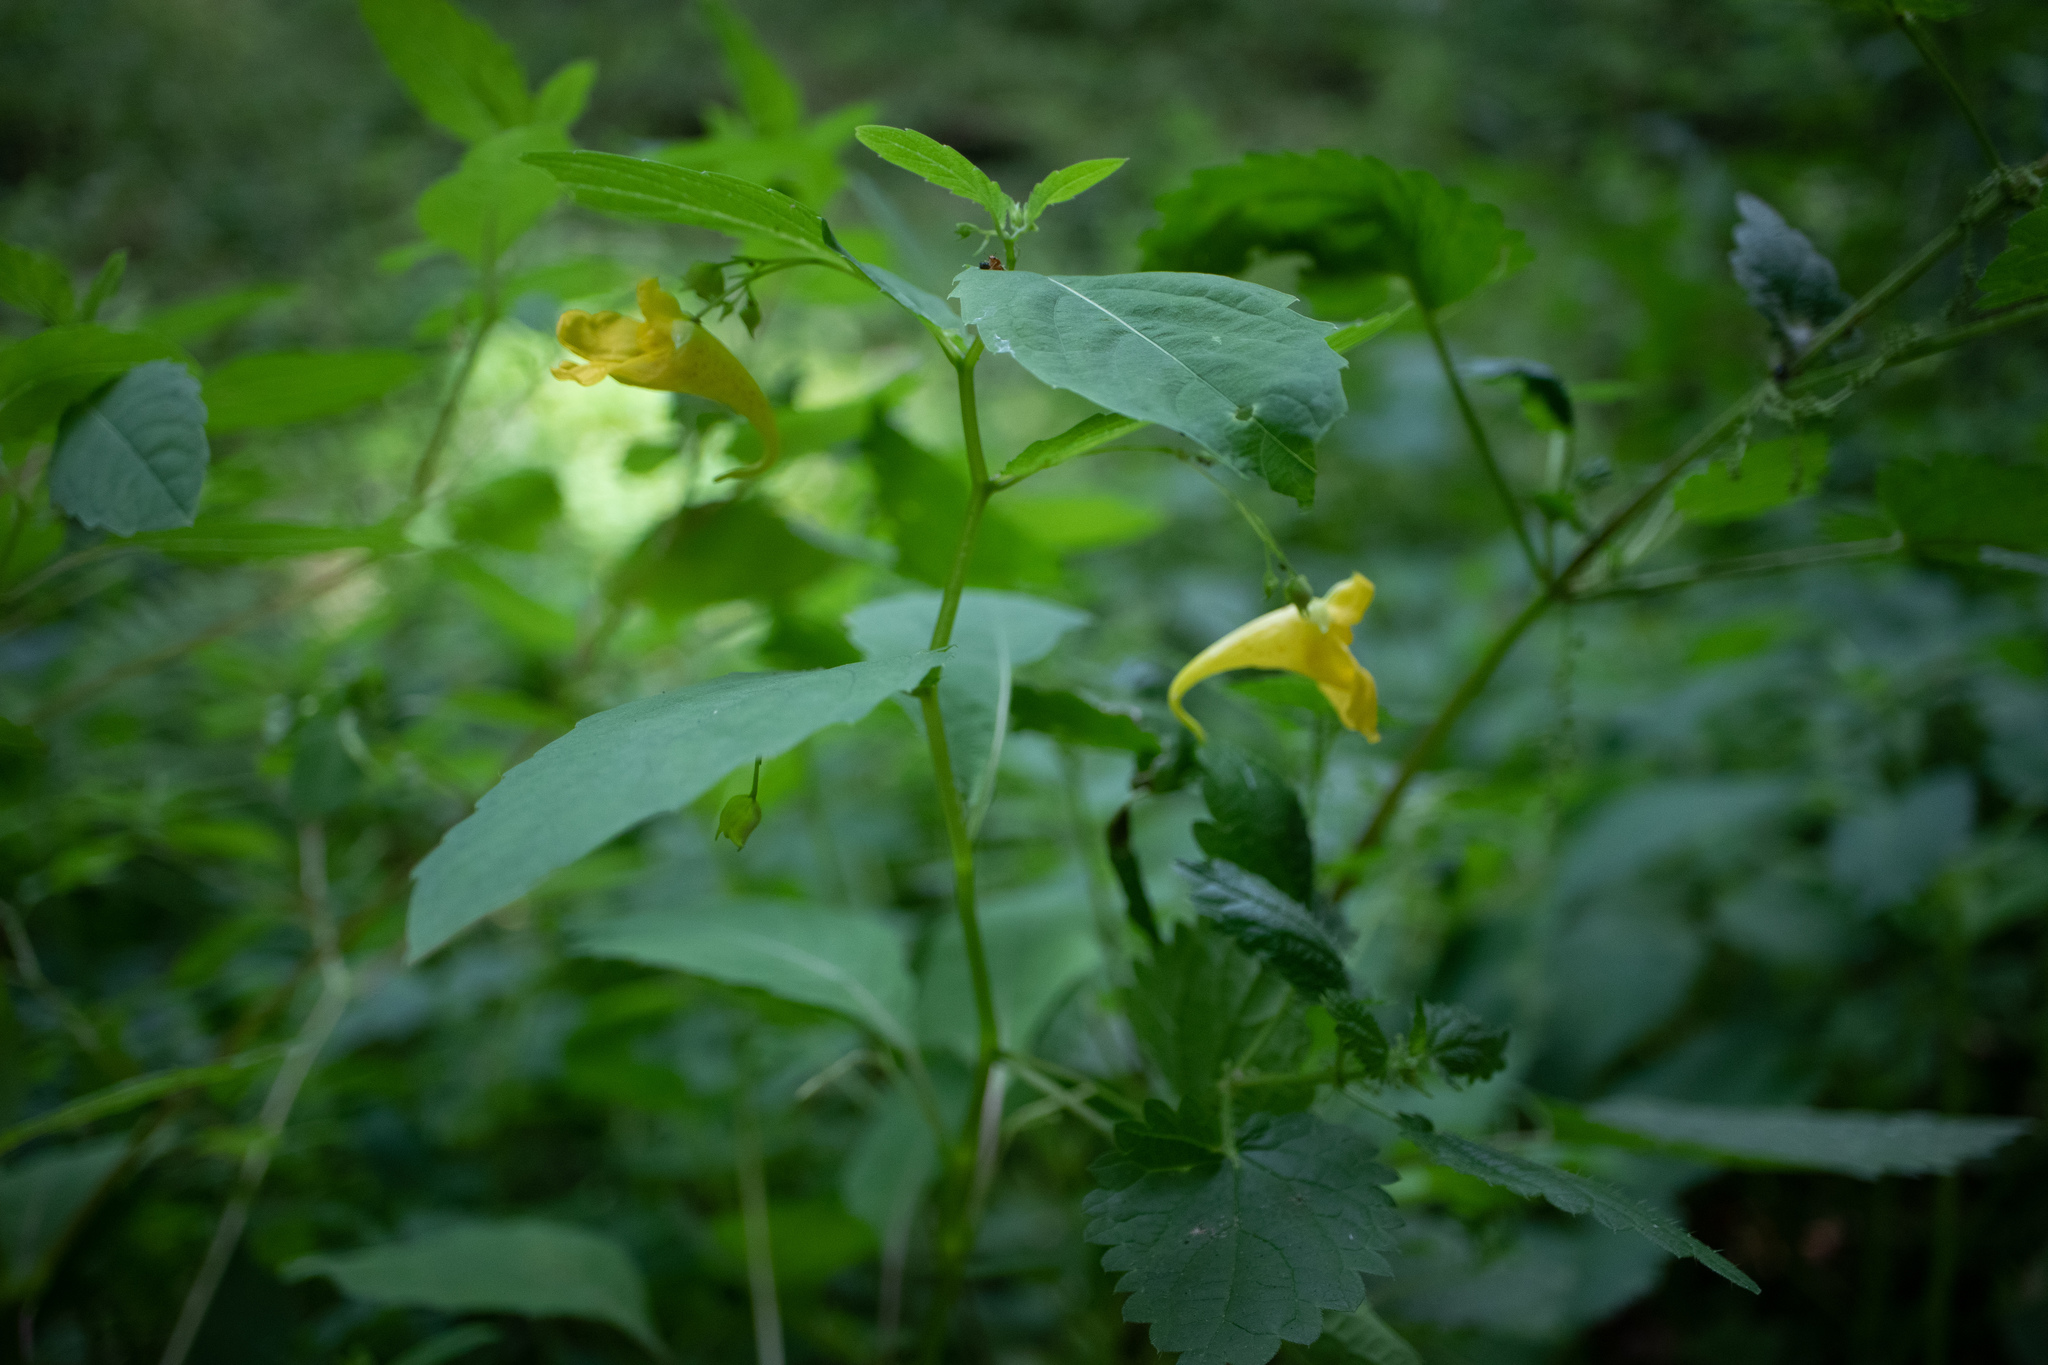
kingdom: Plantae
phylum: Tracheophyta
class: Magnoliopsida
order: Ericales
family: Balsaminaceae
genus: Impatiens
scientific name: Impatiens noli-tangere
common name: Touch-me-not balsam
